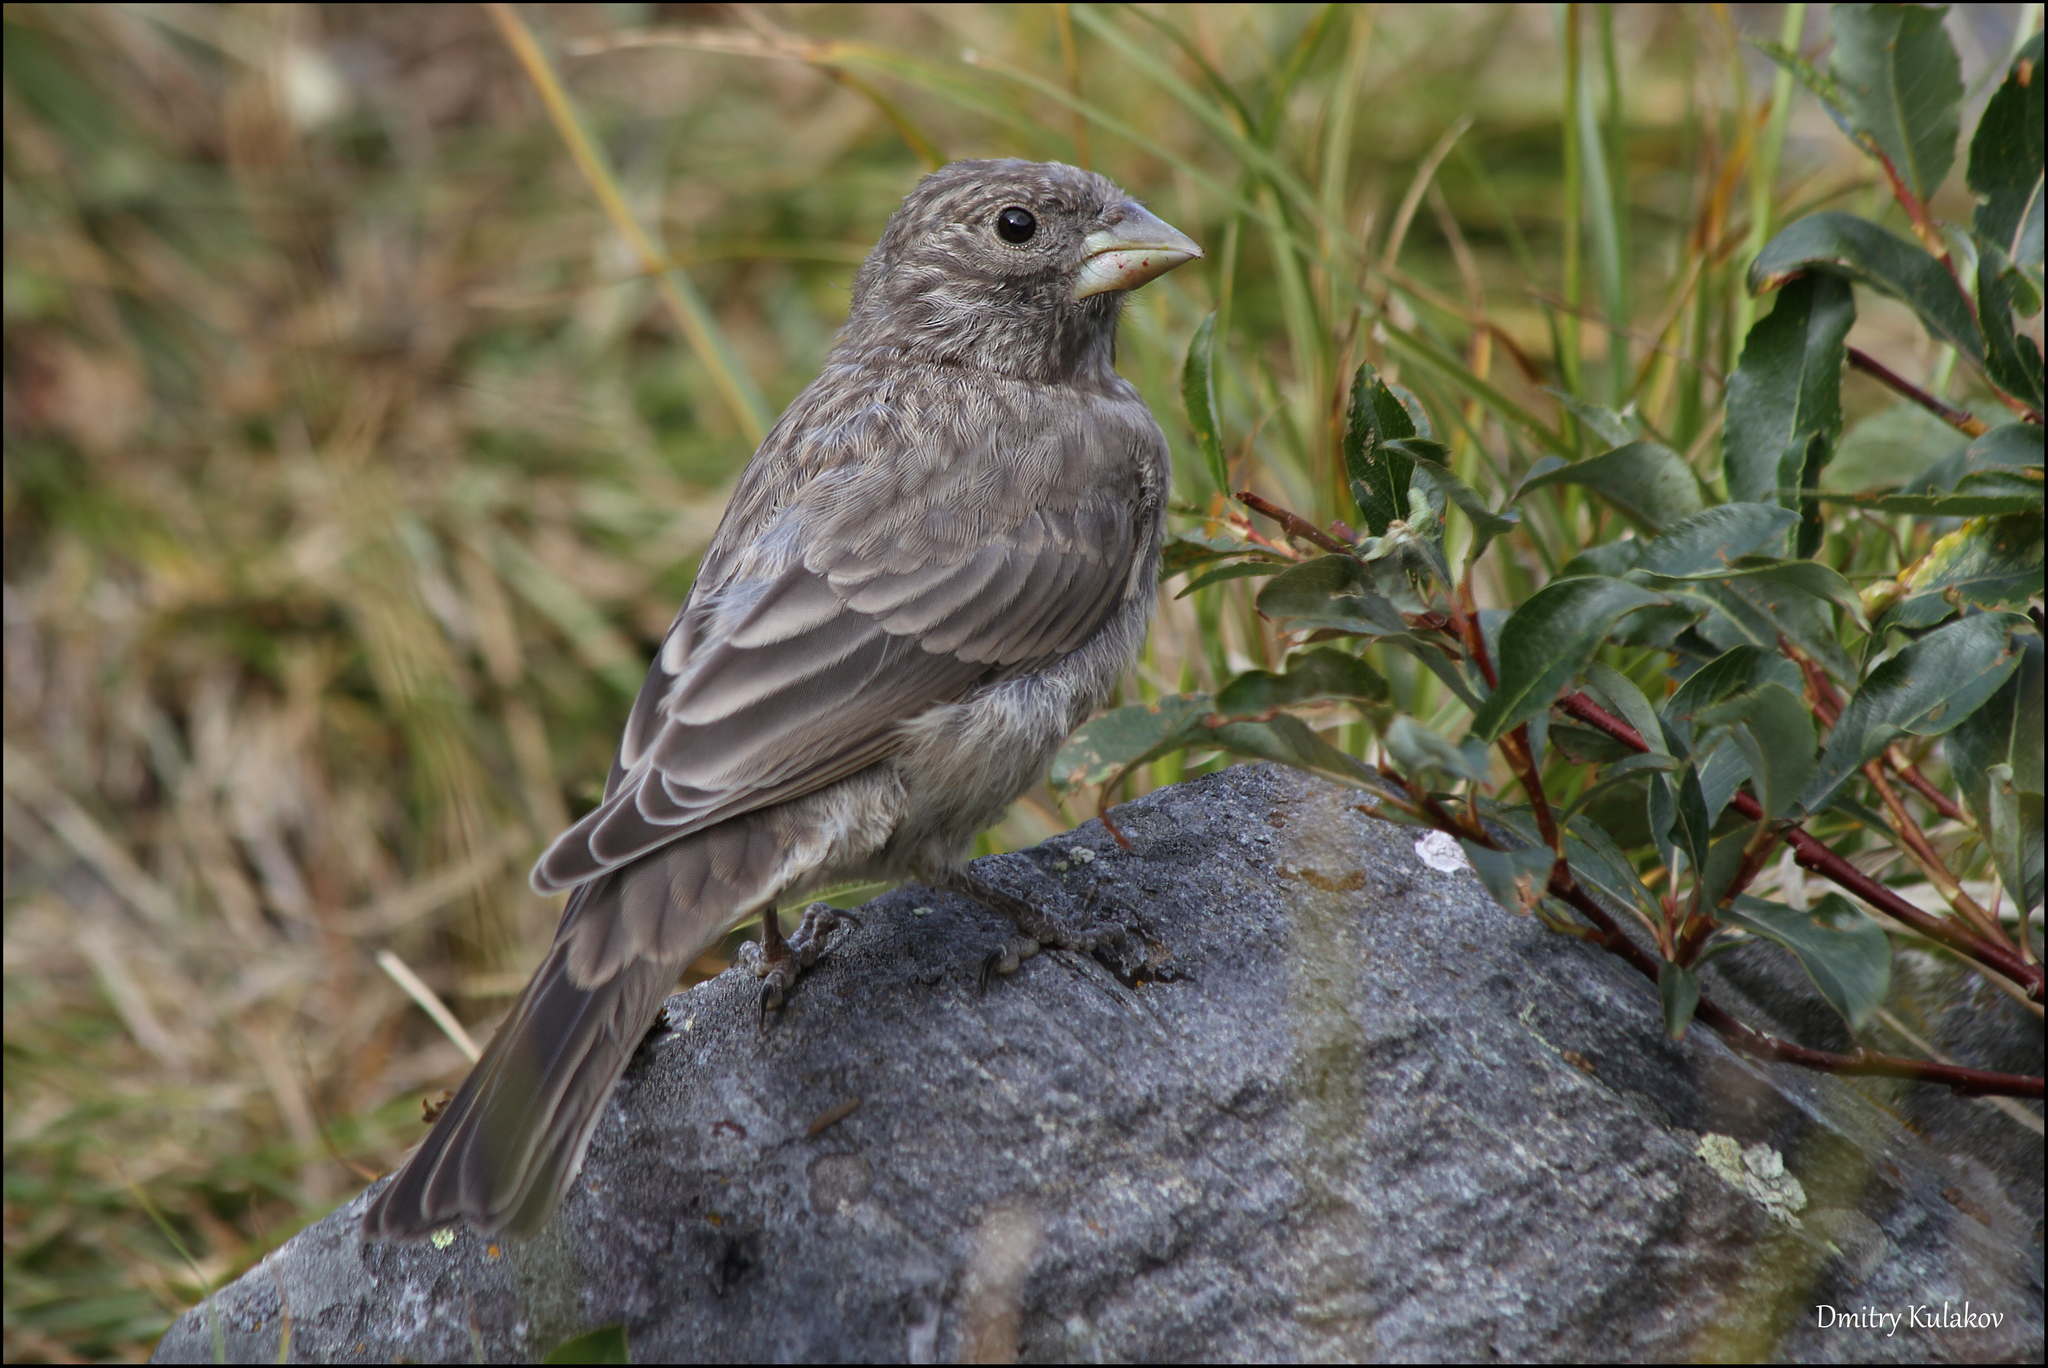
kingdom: Animalia
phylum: Chordata
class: Aves
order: Passeriformes
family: Fringillidae
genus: Carpodacus
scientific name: Carpodacus rubicilla
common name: Great rosefinch
